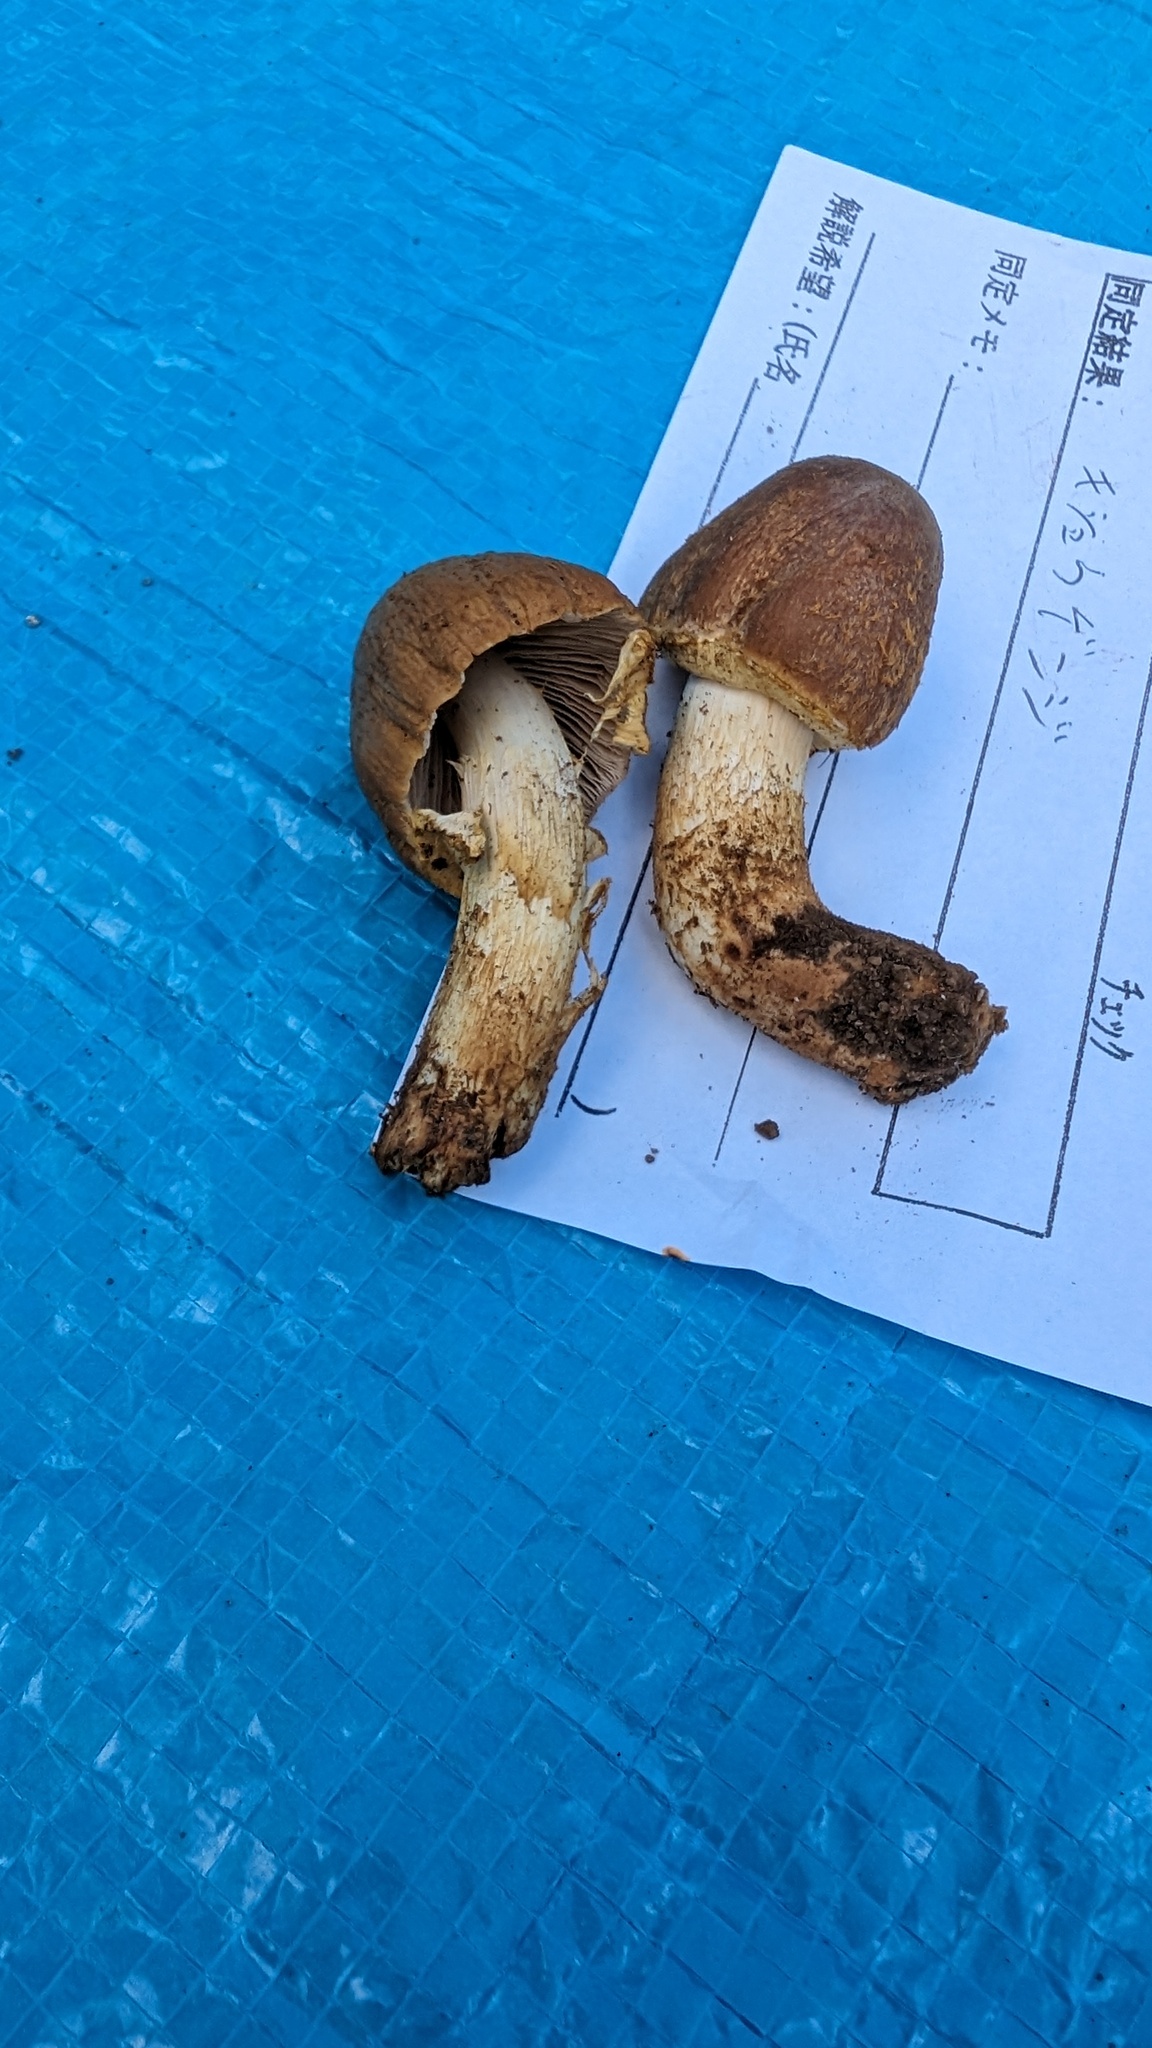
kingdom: Fungi
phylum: Basidiomycota
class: Agaricomycetes
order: Agaricales
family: Bolbitiaceae
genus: Descolea
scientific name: Descolea flavoannulata
